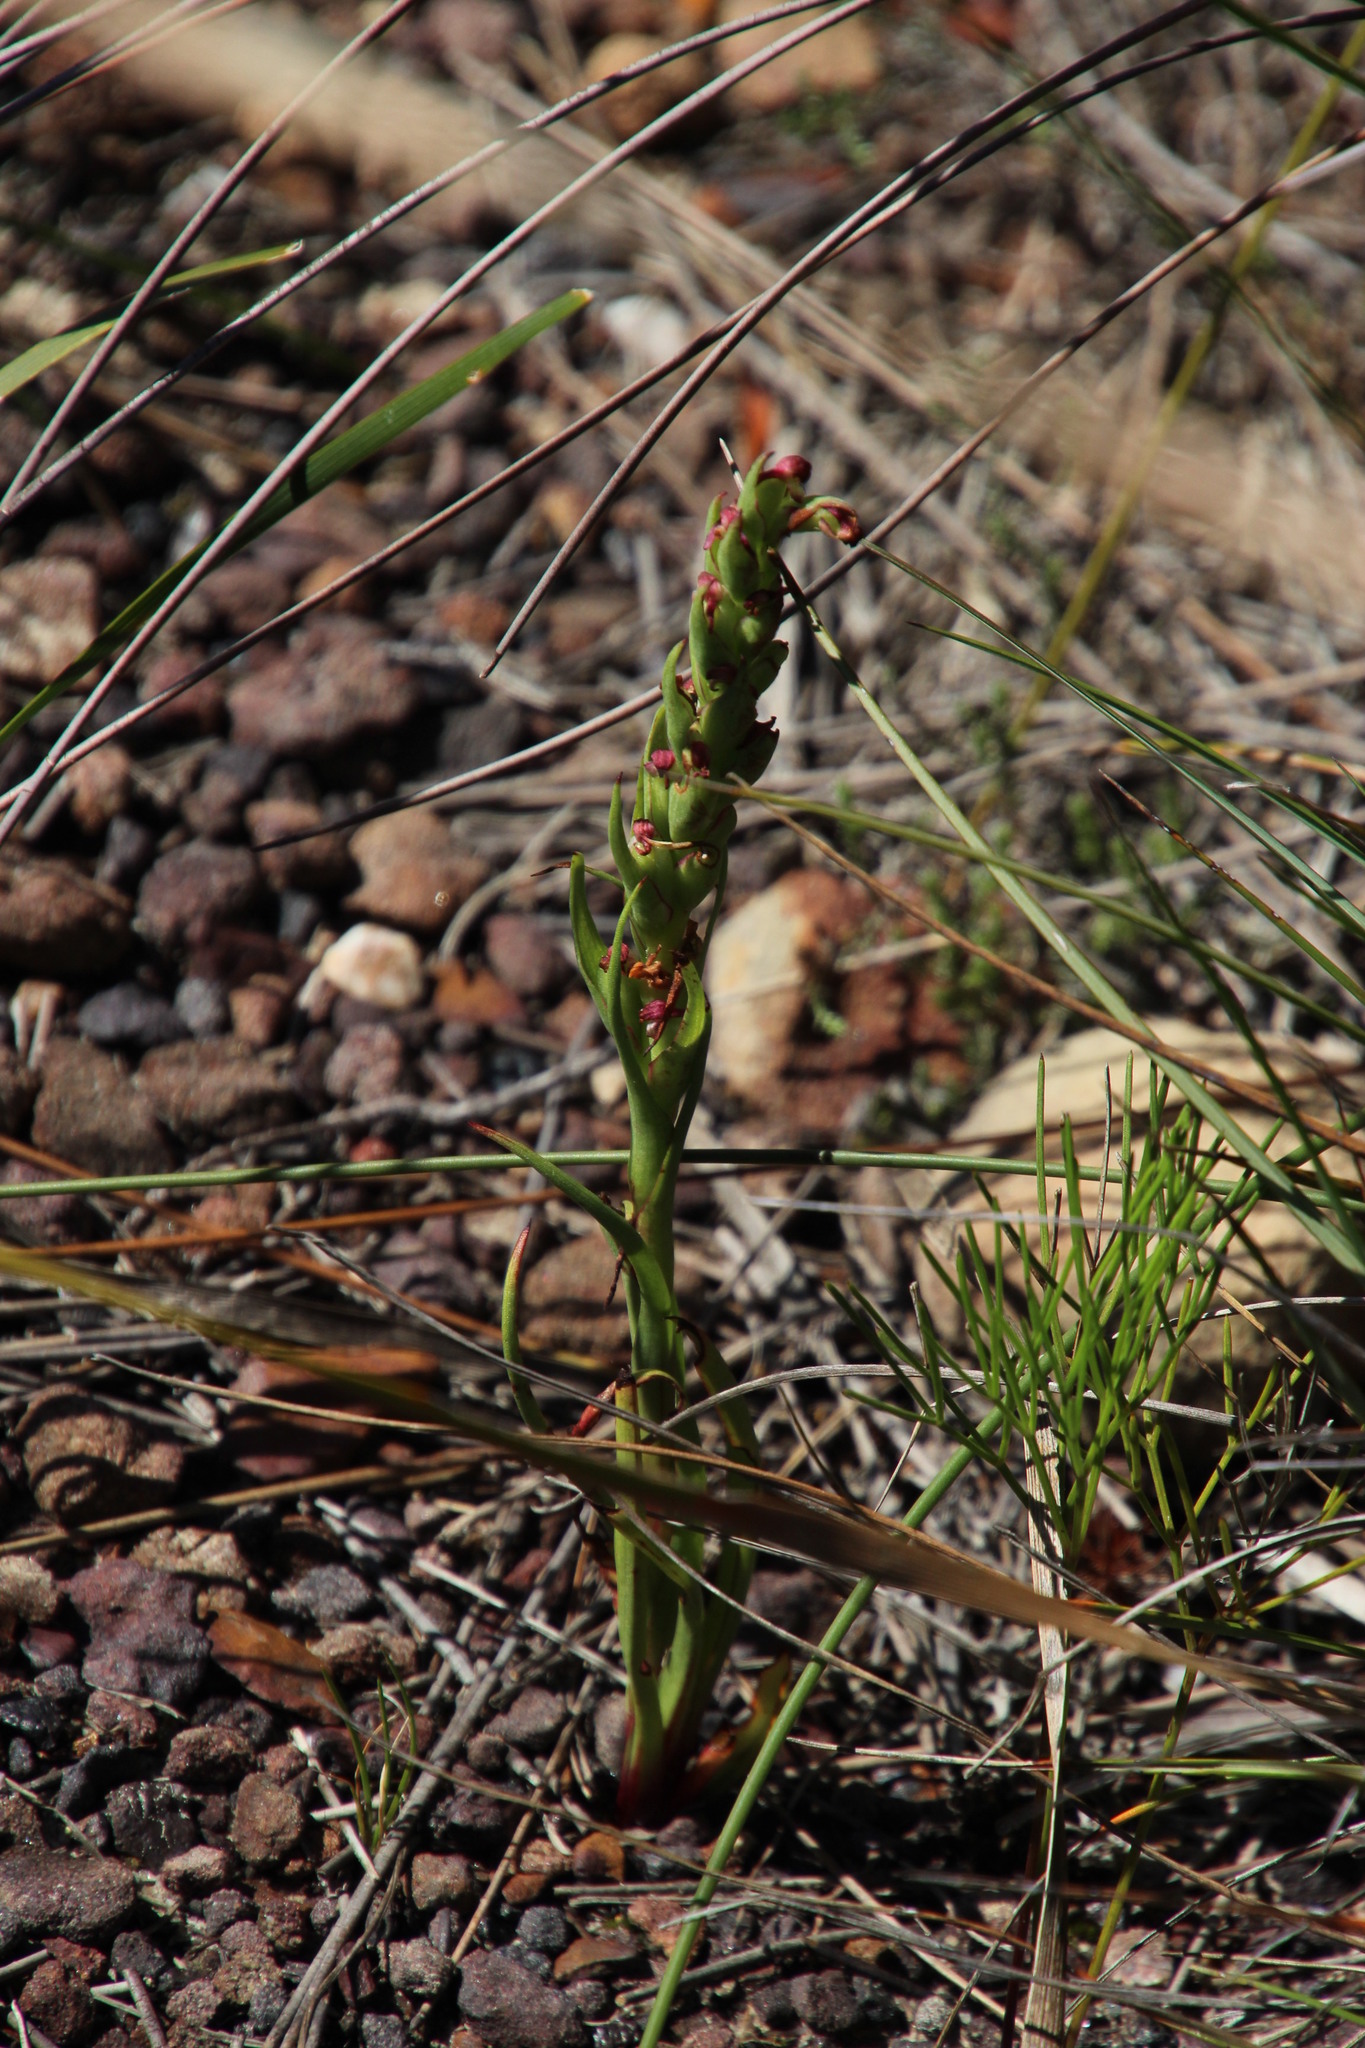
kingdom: Plantae
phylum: Tracheophyta
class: Liliopsida
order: Asparagales
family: Orchidaceae
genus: Disa
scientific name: Disa bracteata
